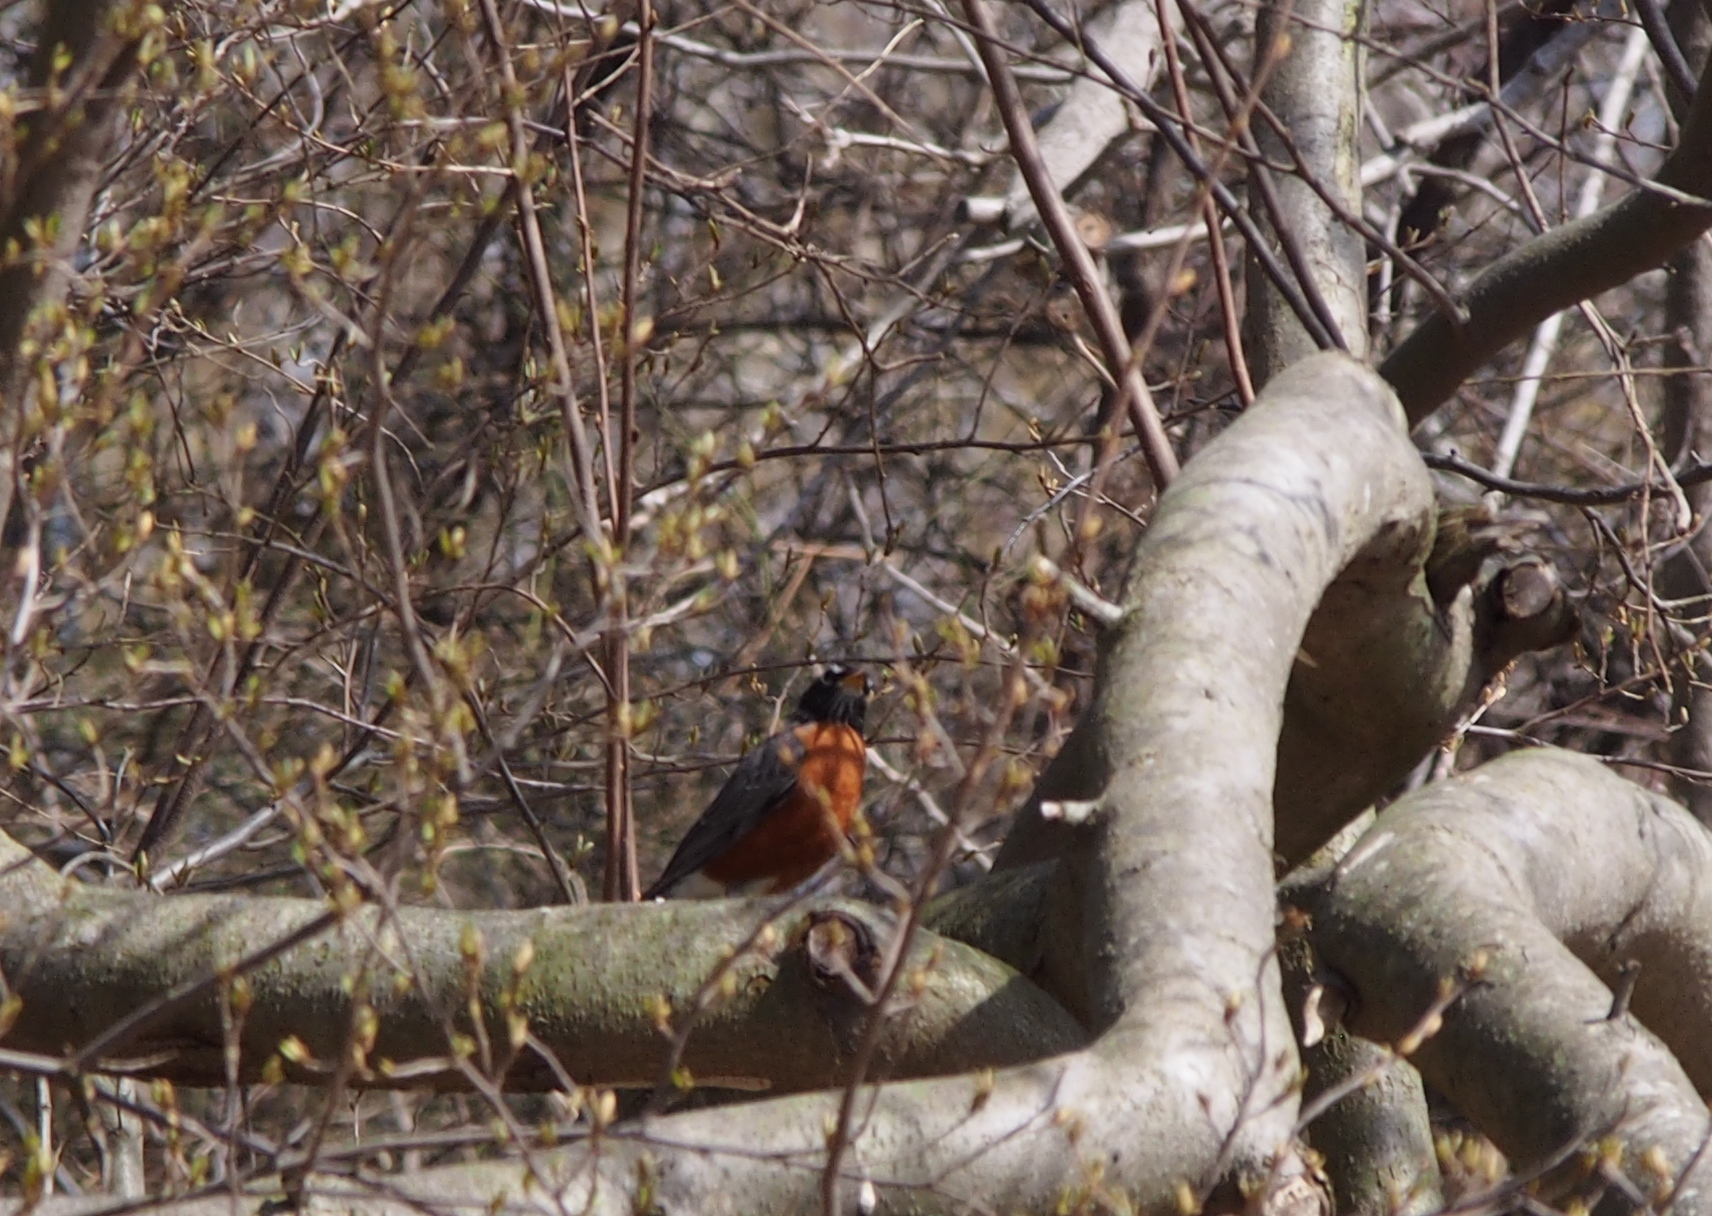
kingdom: Animalia
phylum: Chordata
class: Aves
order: Passeriformes
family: Turdidae
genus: Turdus
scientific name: Turdus migratorius
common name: American robin
